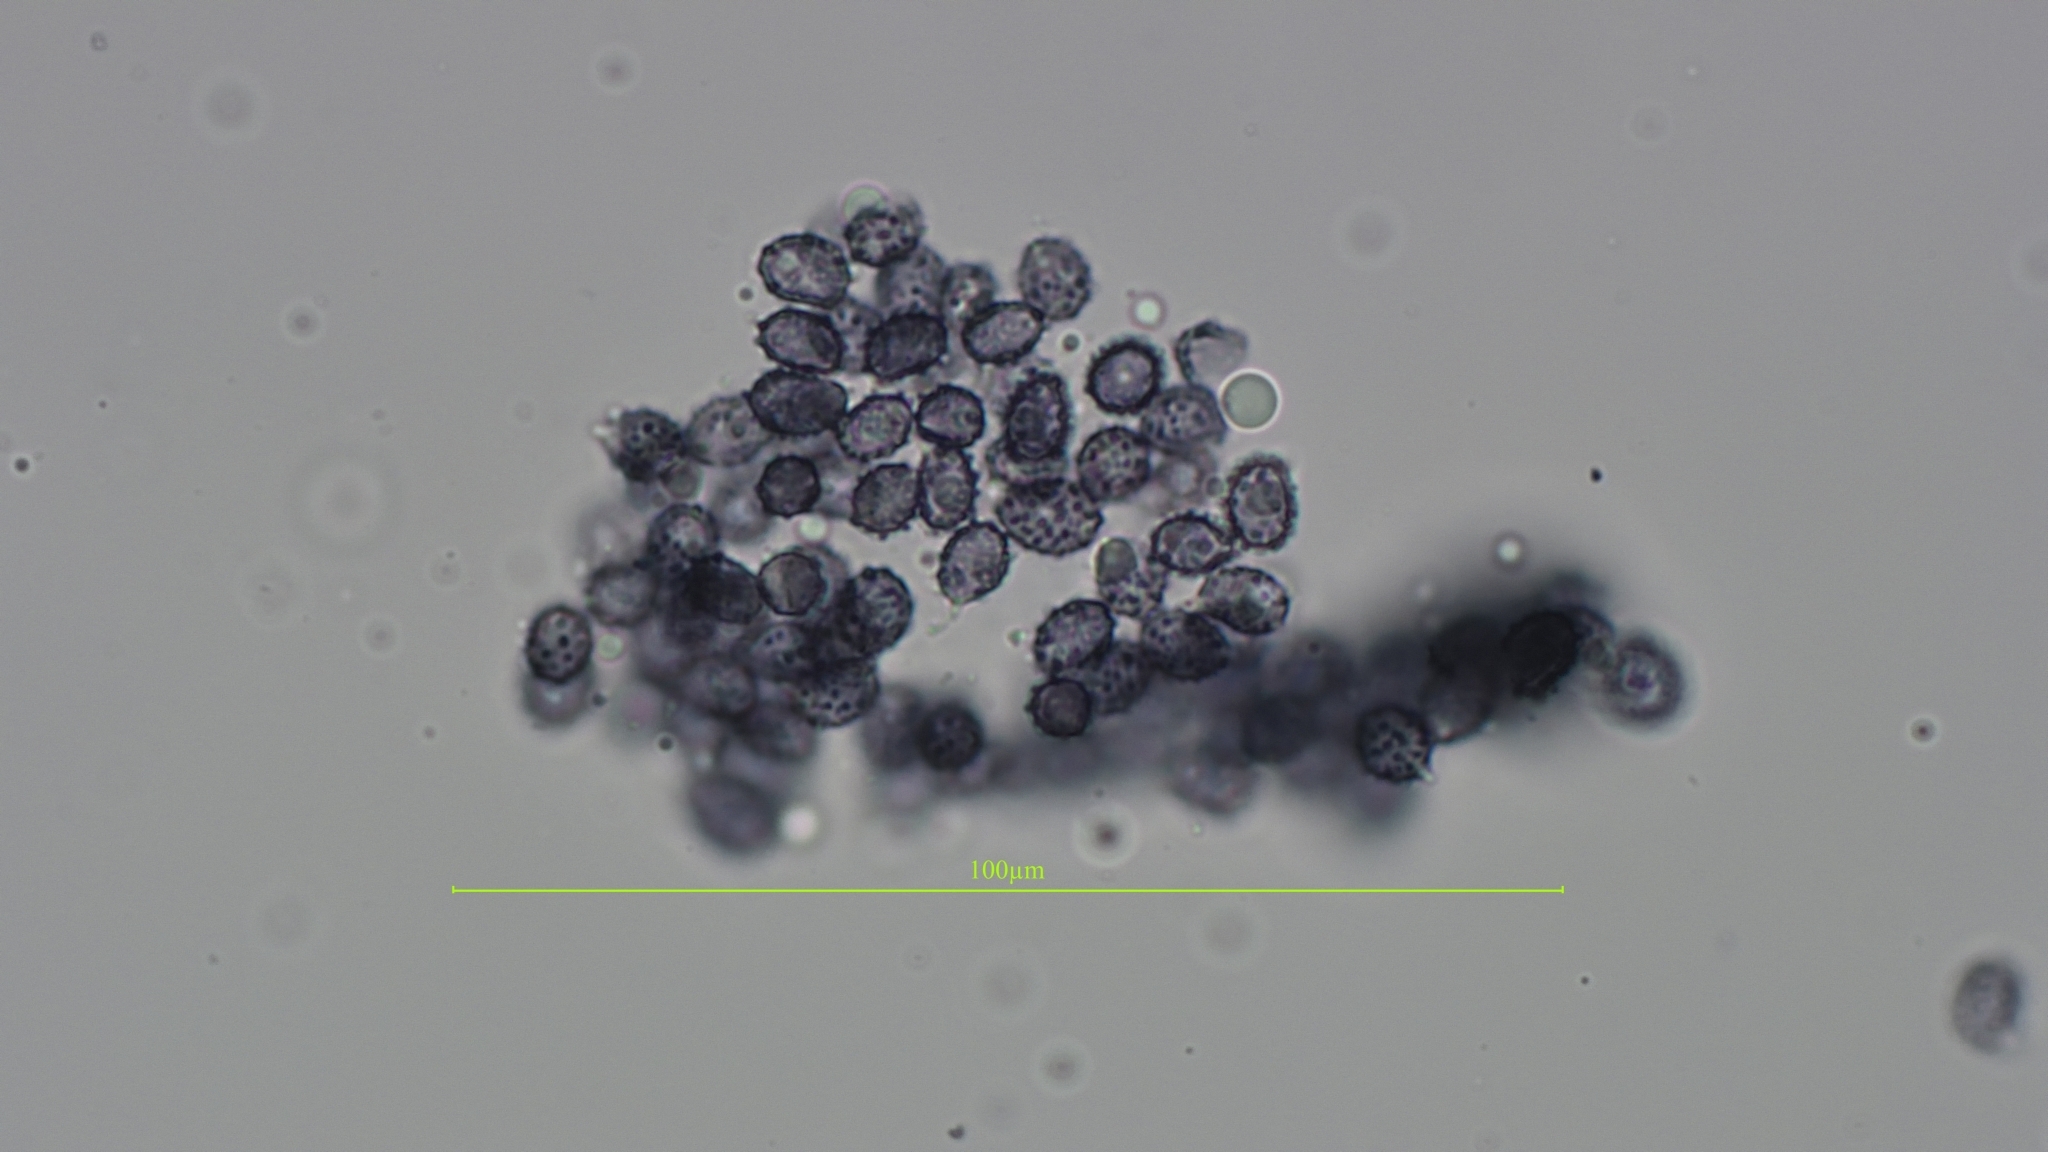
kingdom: Fungi
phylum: Basidiomycota
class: Agaricomycetes
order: Russulales
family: Russulaceae
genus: Russula
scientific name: Russula amoenolens
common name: Camembert brittlegill
